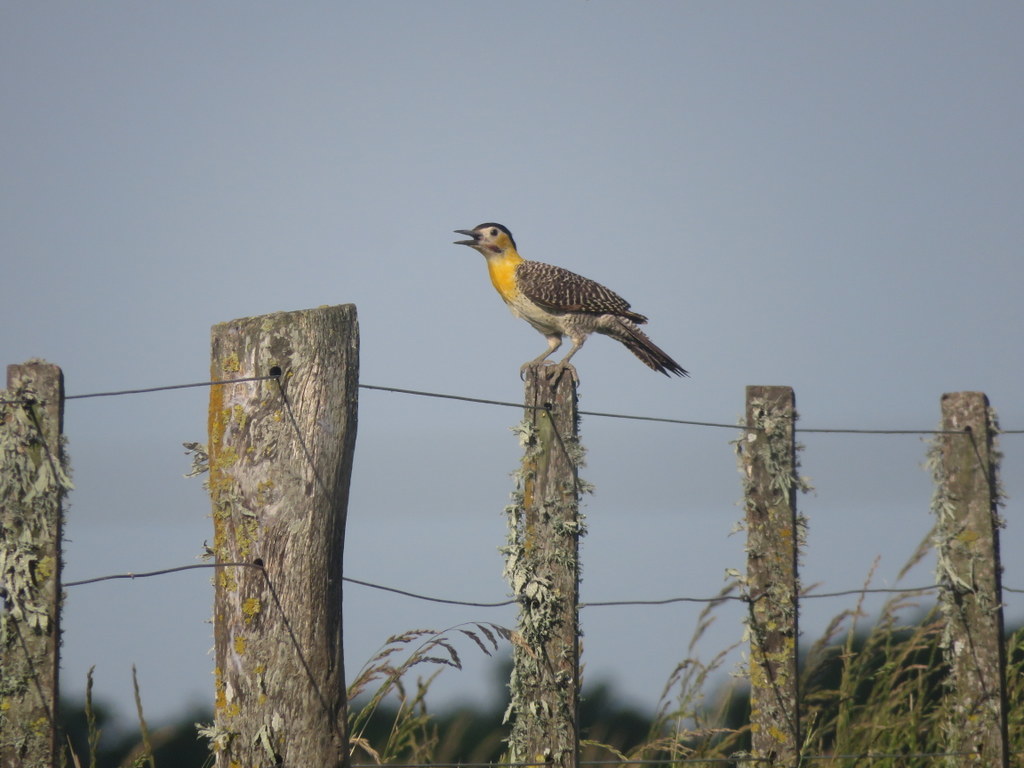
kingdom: Animalia
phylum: Chordata
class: Aves
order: Piciformes
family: Picidae
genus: Colaptes
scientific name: Colaptes campestris
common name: Campo flicker
